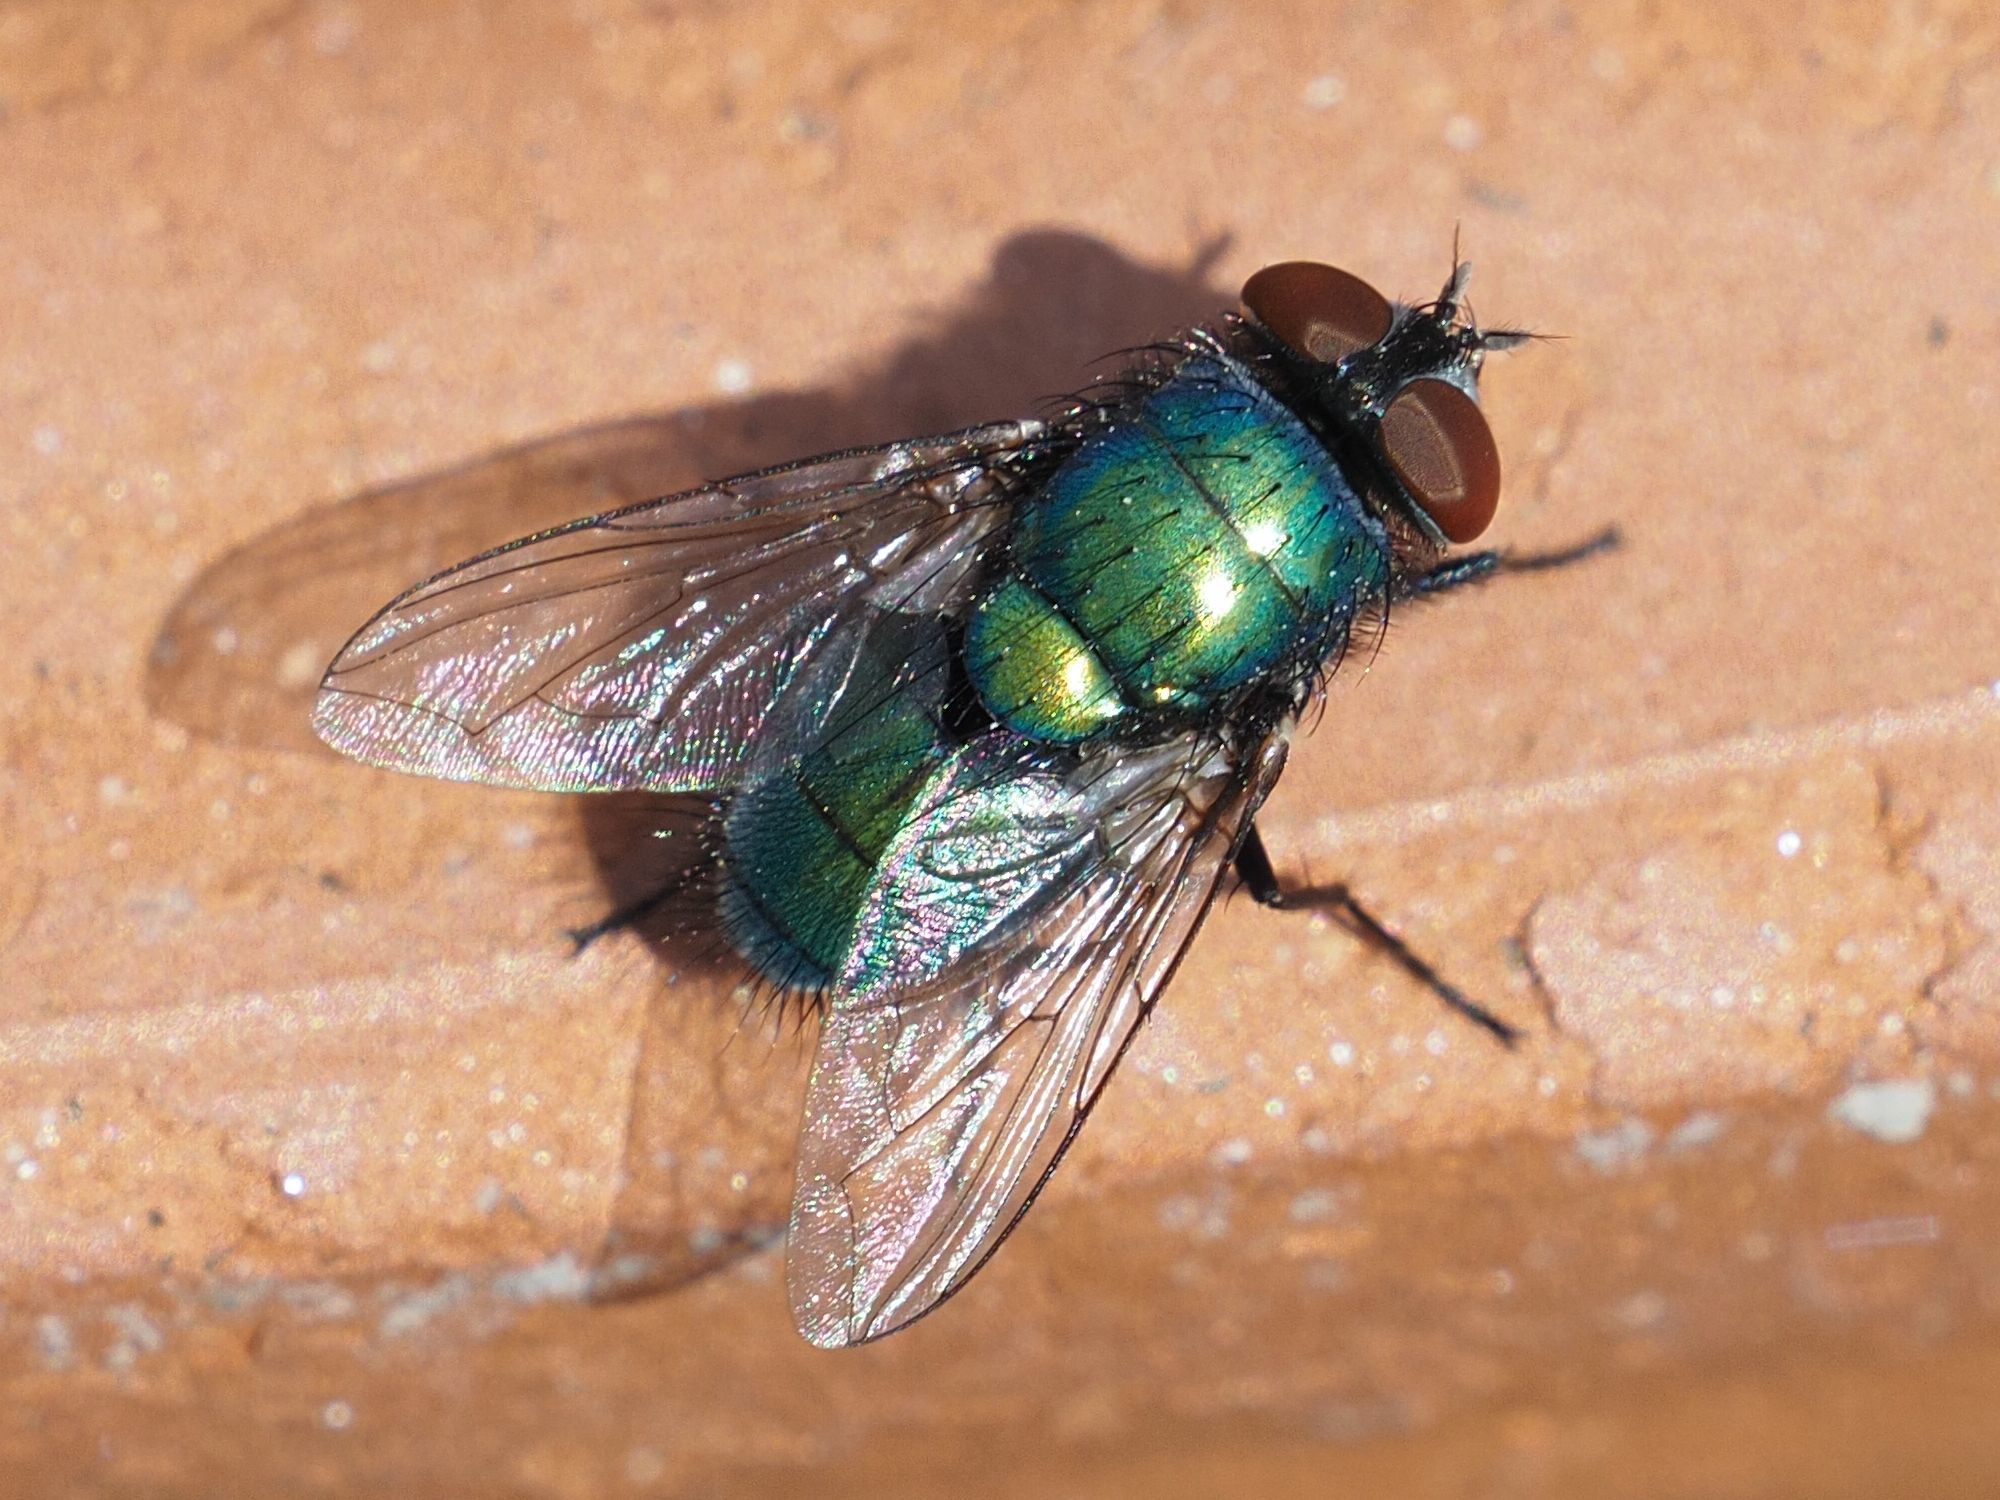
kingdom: Animalia
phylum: Arthropoda
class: Insecta
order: Diptera
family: Calliphoridae
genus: Lucilia
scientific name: Lucilia sericata
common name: Blow fly
